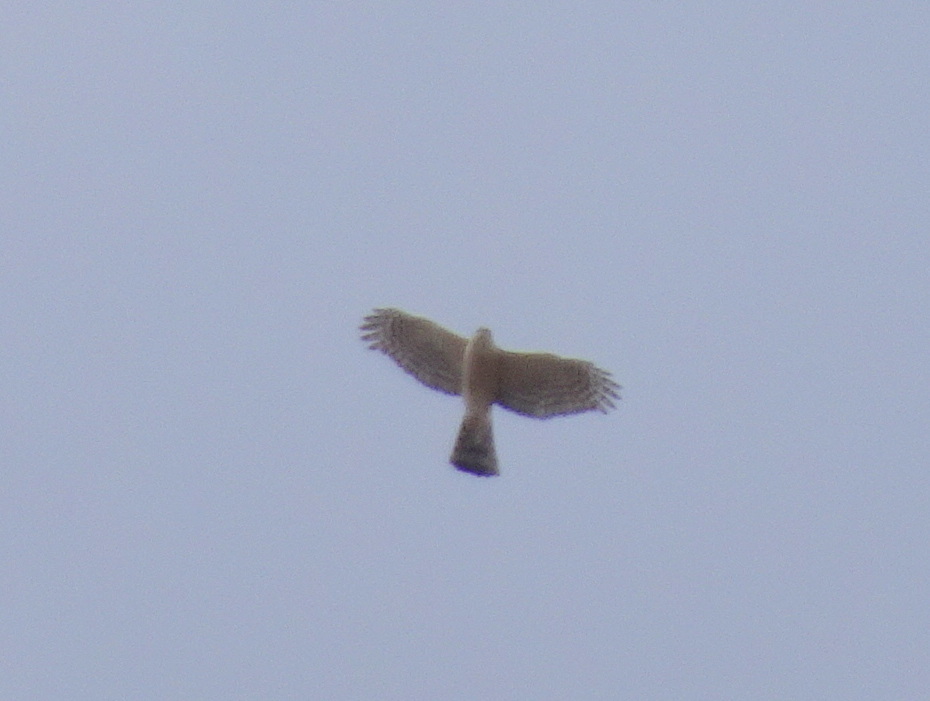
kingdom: Animalia
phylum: Chordata
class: Aves
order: Accipitriformes
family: Accipitridae
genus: Accipiter
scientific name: Accipiter striatus
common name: Sharp-shinned hawk
